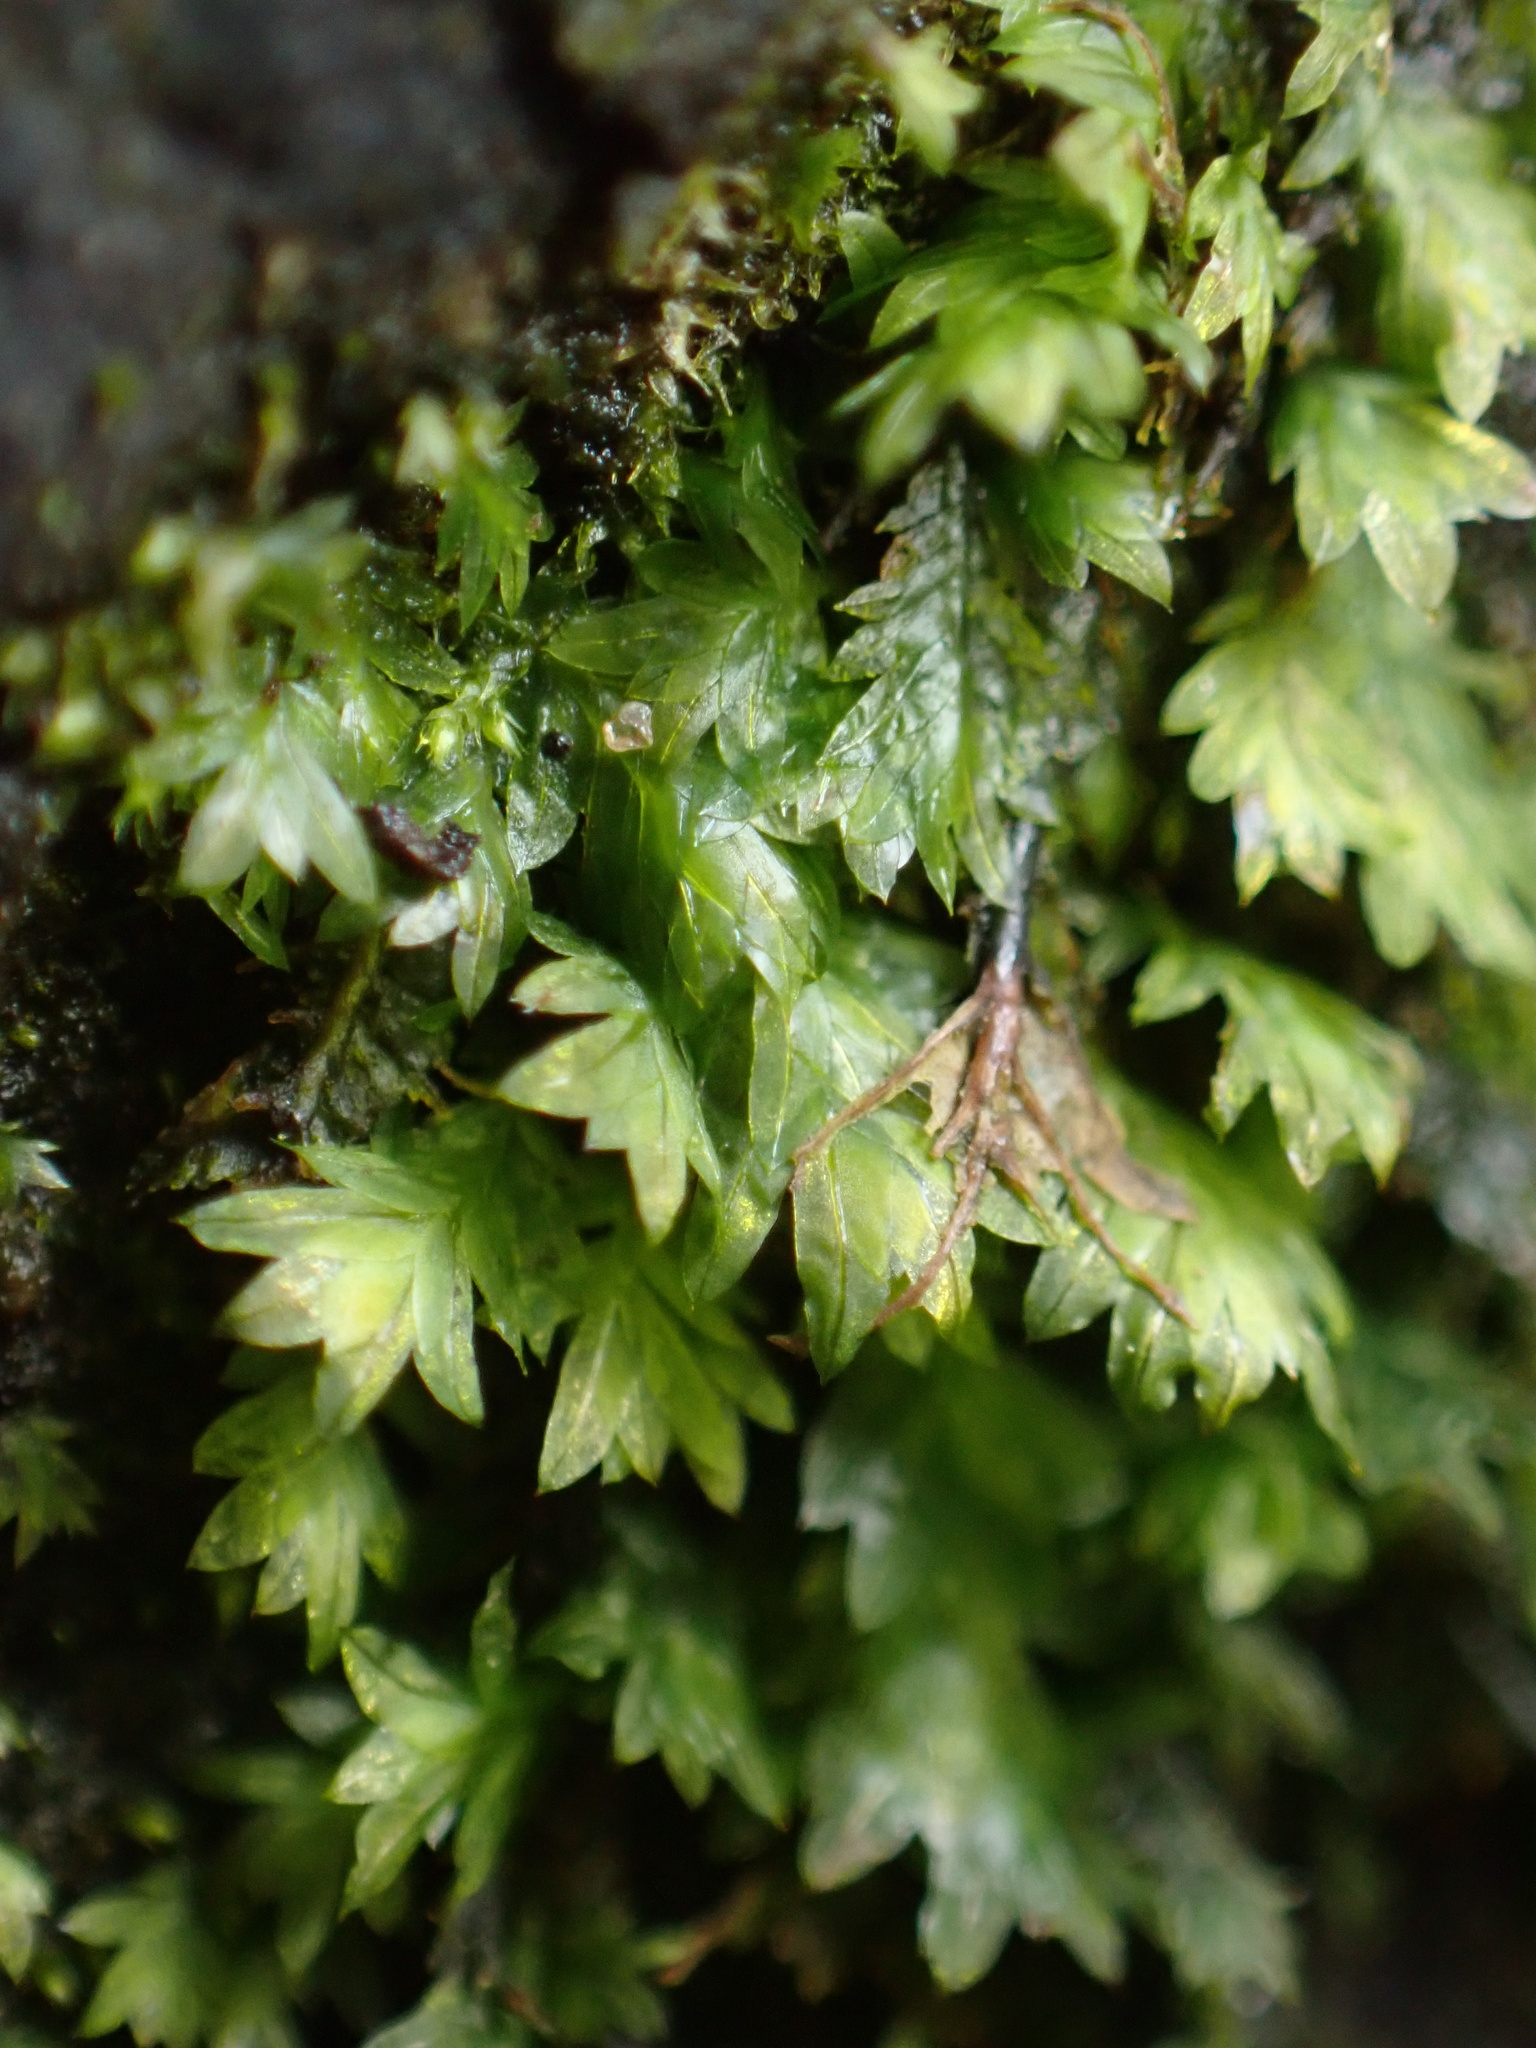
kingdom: Plantae
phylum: Bryophyta
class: Bryopsida
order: Dicranales
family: Fissidentaceae
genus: Fissidens
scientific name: Fissidens taxifolius
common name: Yew-leaved pocket moss
